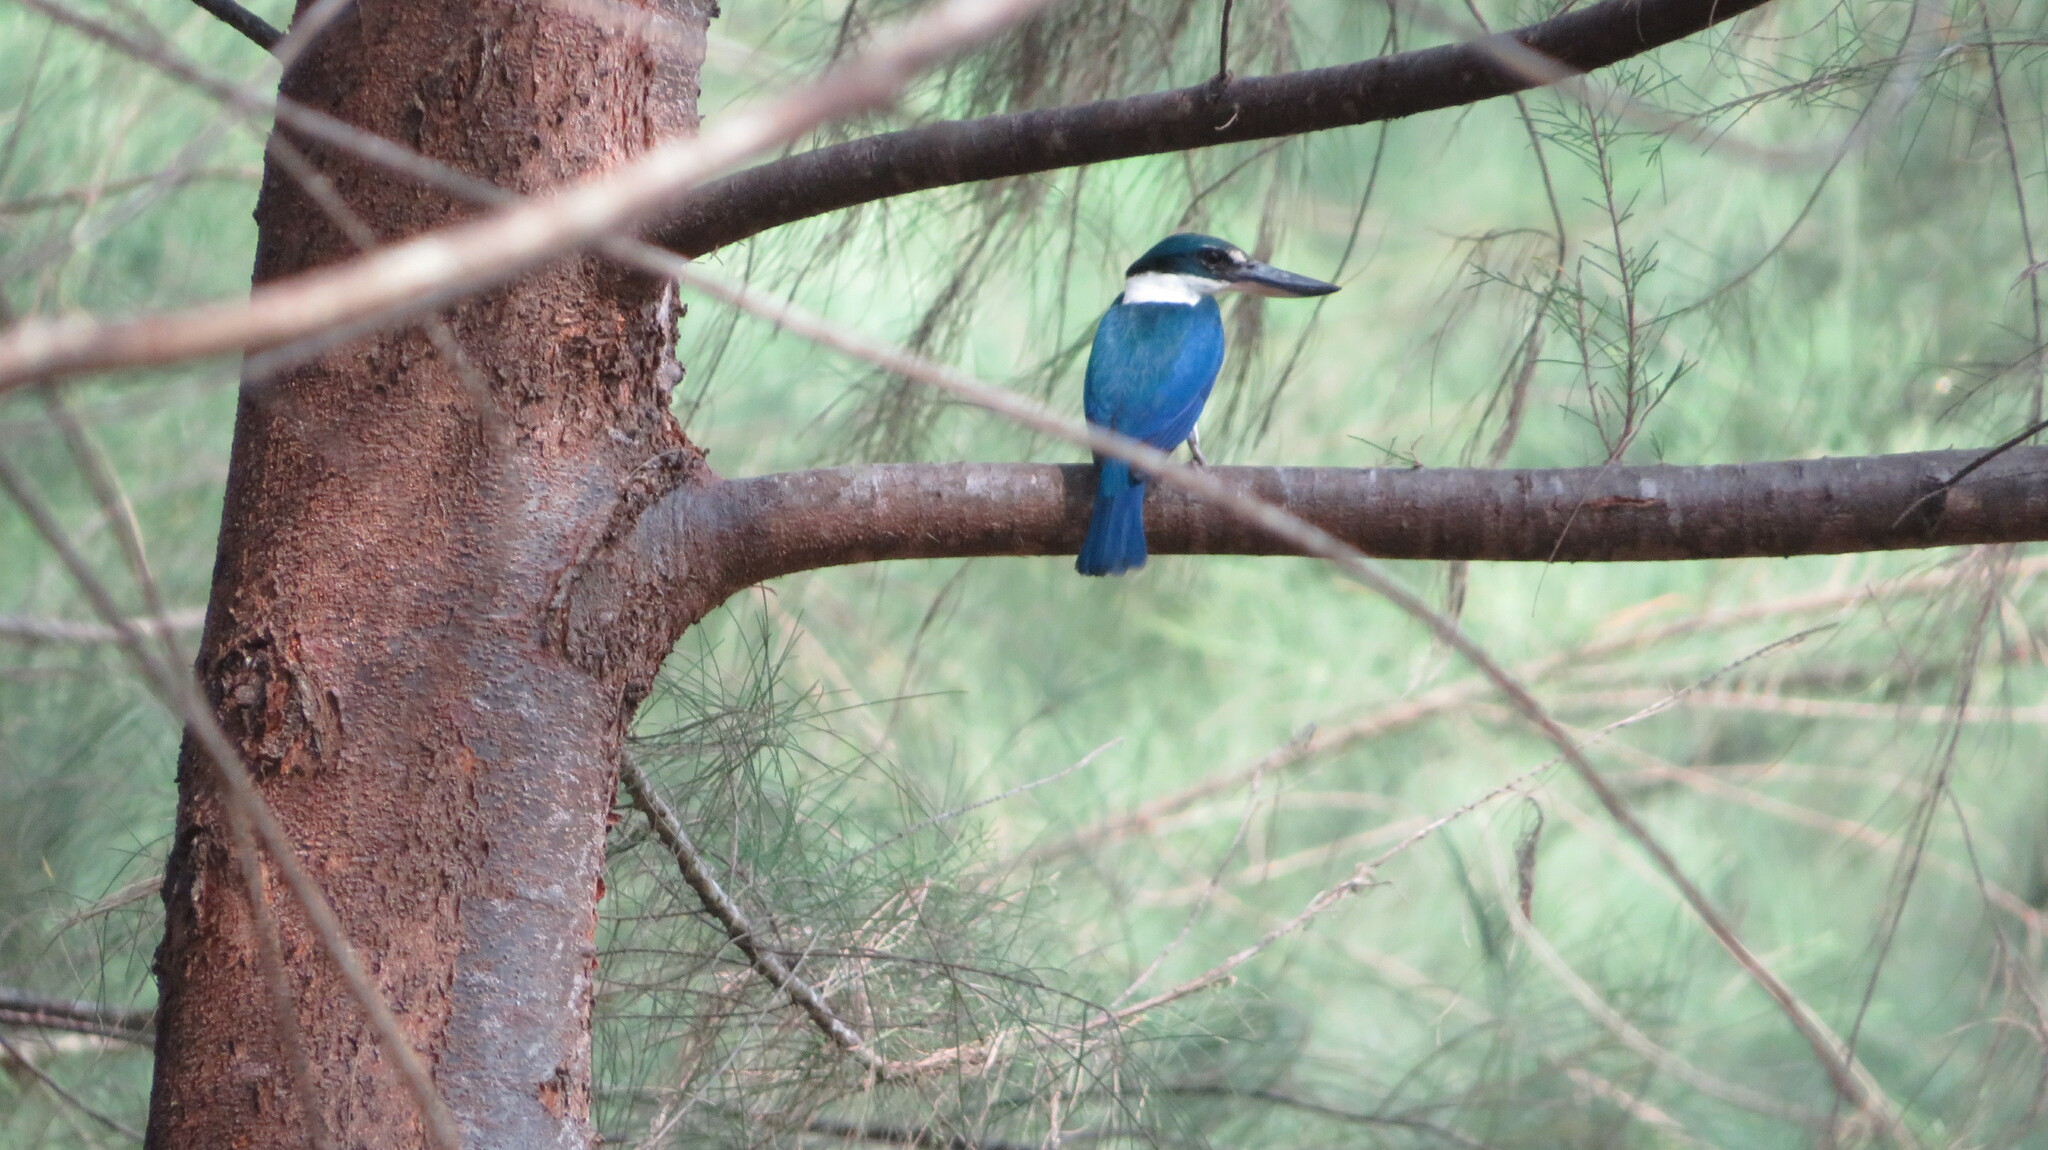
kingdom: Animalia
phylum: Chordata
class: Aves
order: Coraciiformes
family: Alcedinidae
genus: Todiramphus
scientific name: Todiramphus chloris
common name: Collared kingfisher
